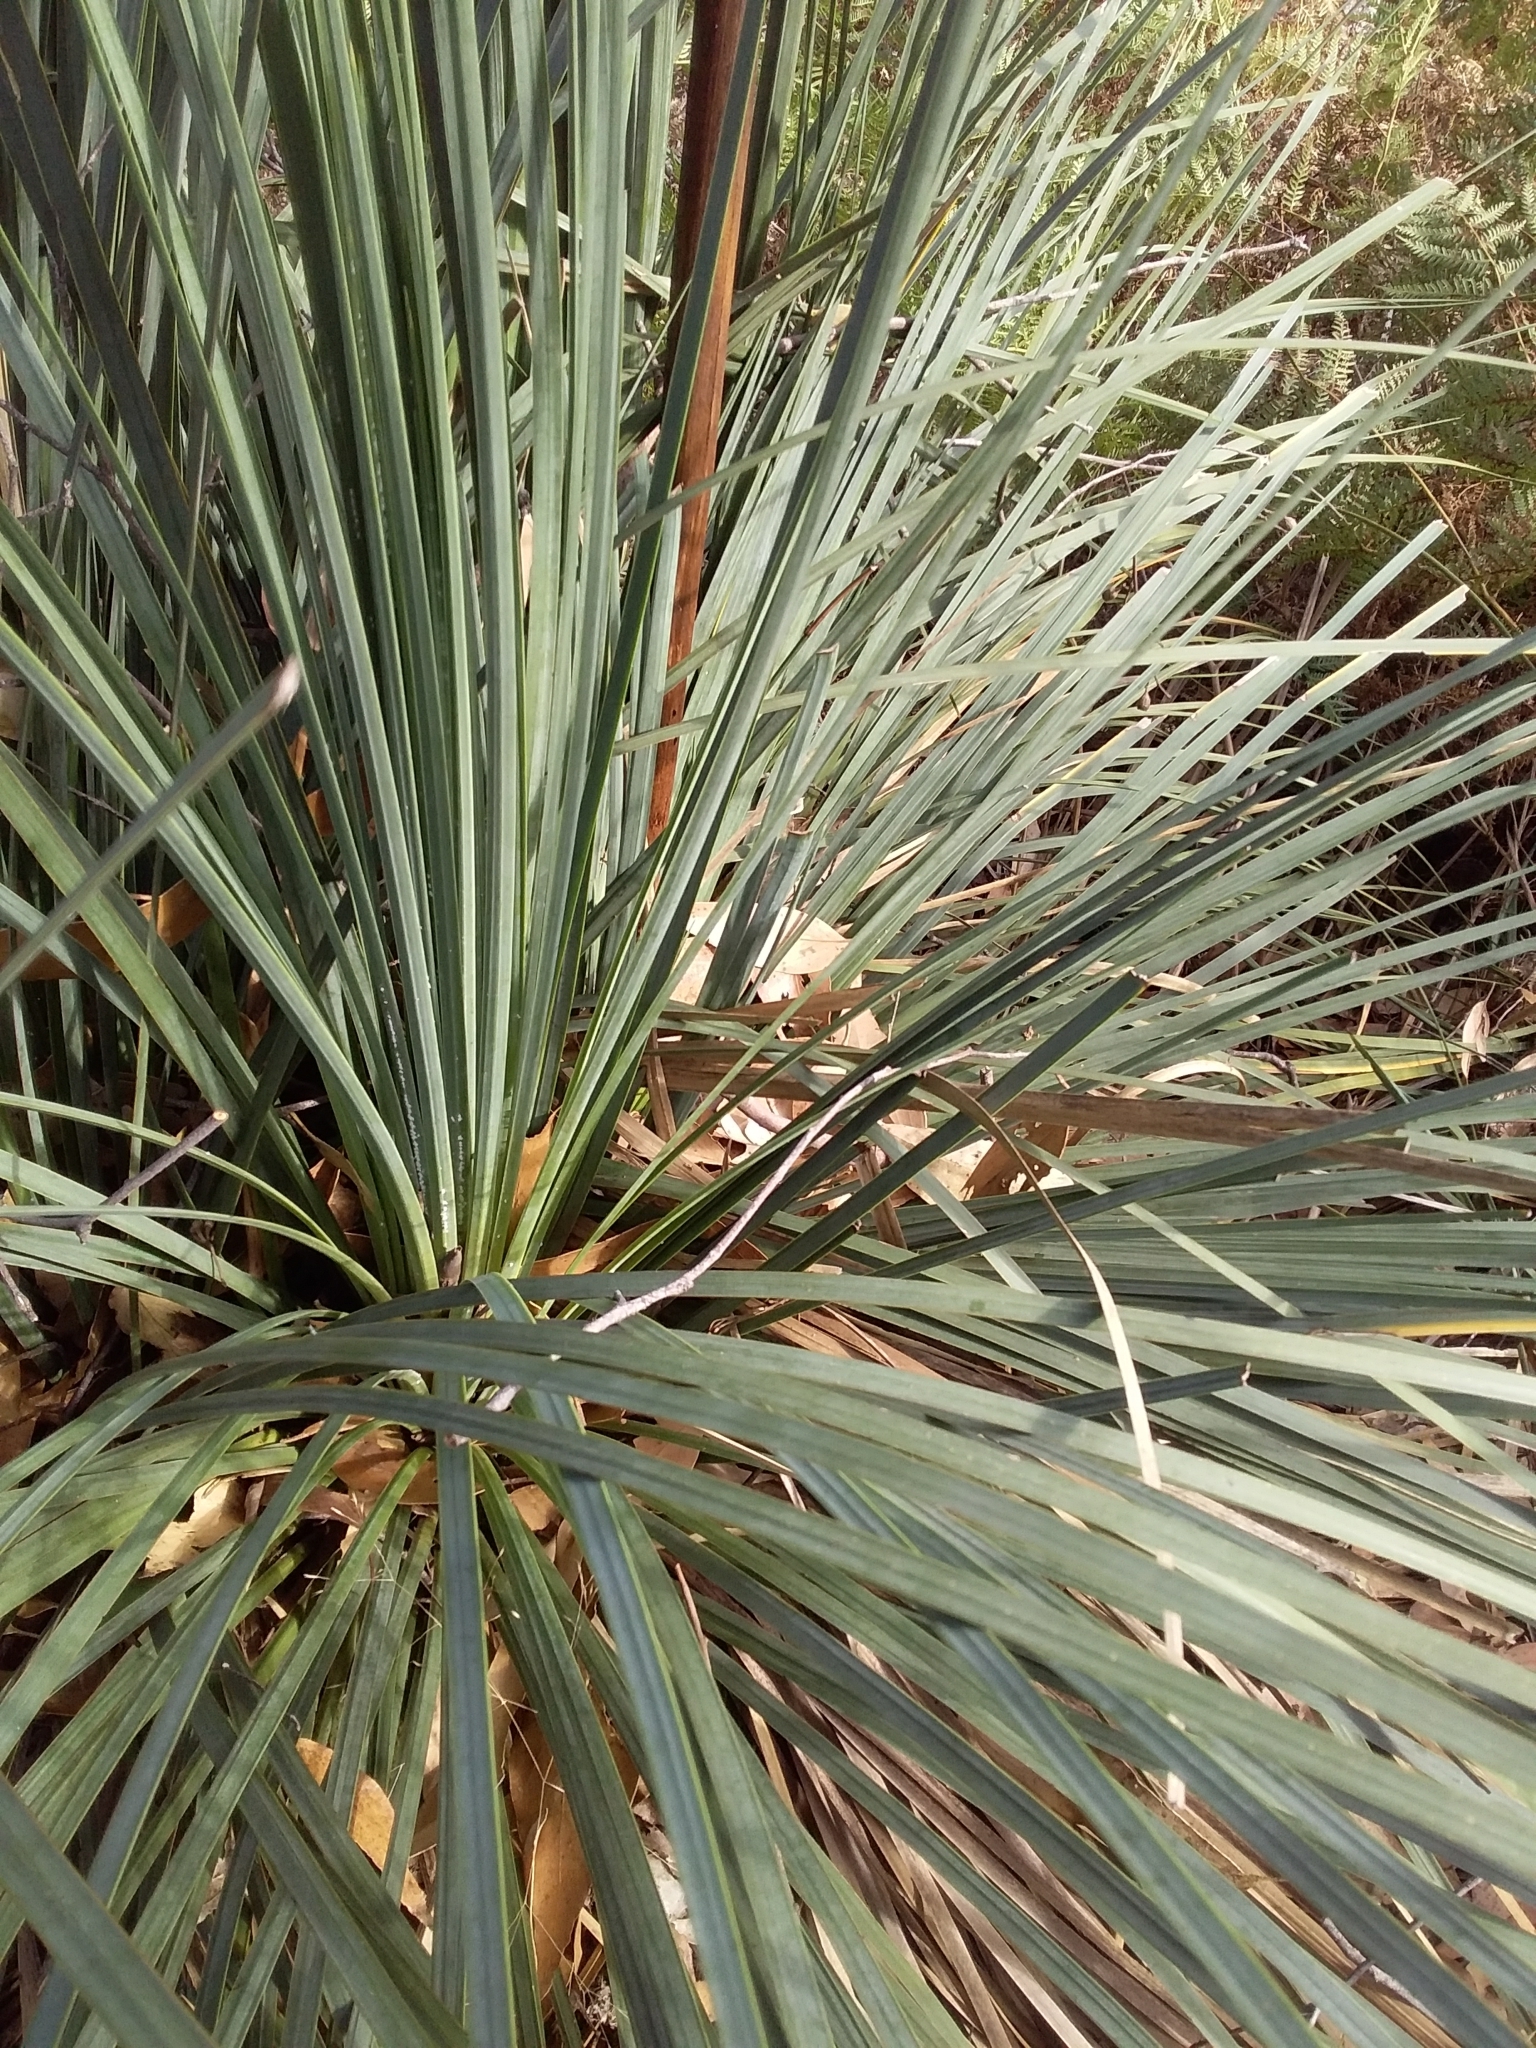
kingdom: Plantae
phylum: Tracheophyta
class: Liliopsida
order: Asparagales
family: Asphodelaceae
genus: Xanthorrhoea
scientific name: Xanthorrhoea semiplana
